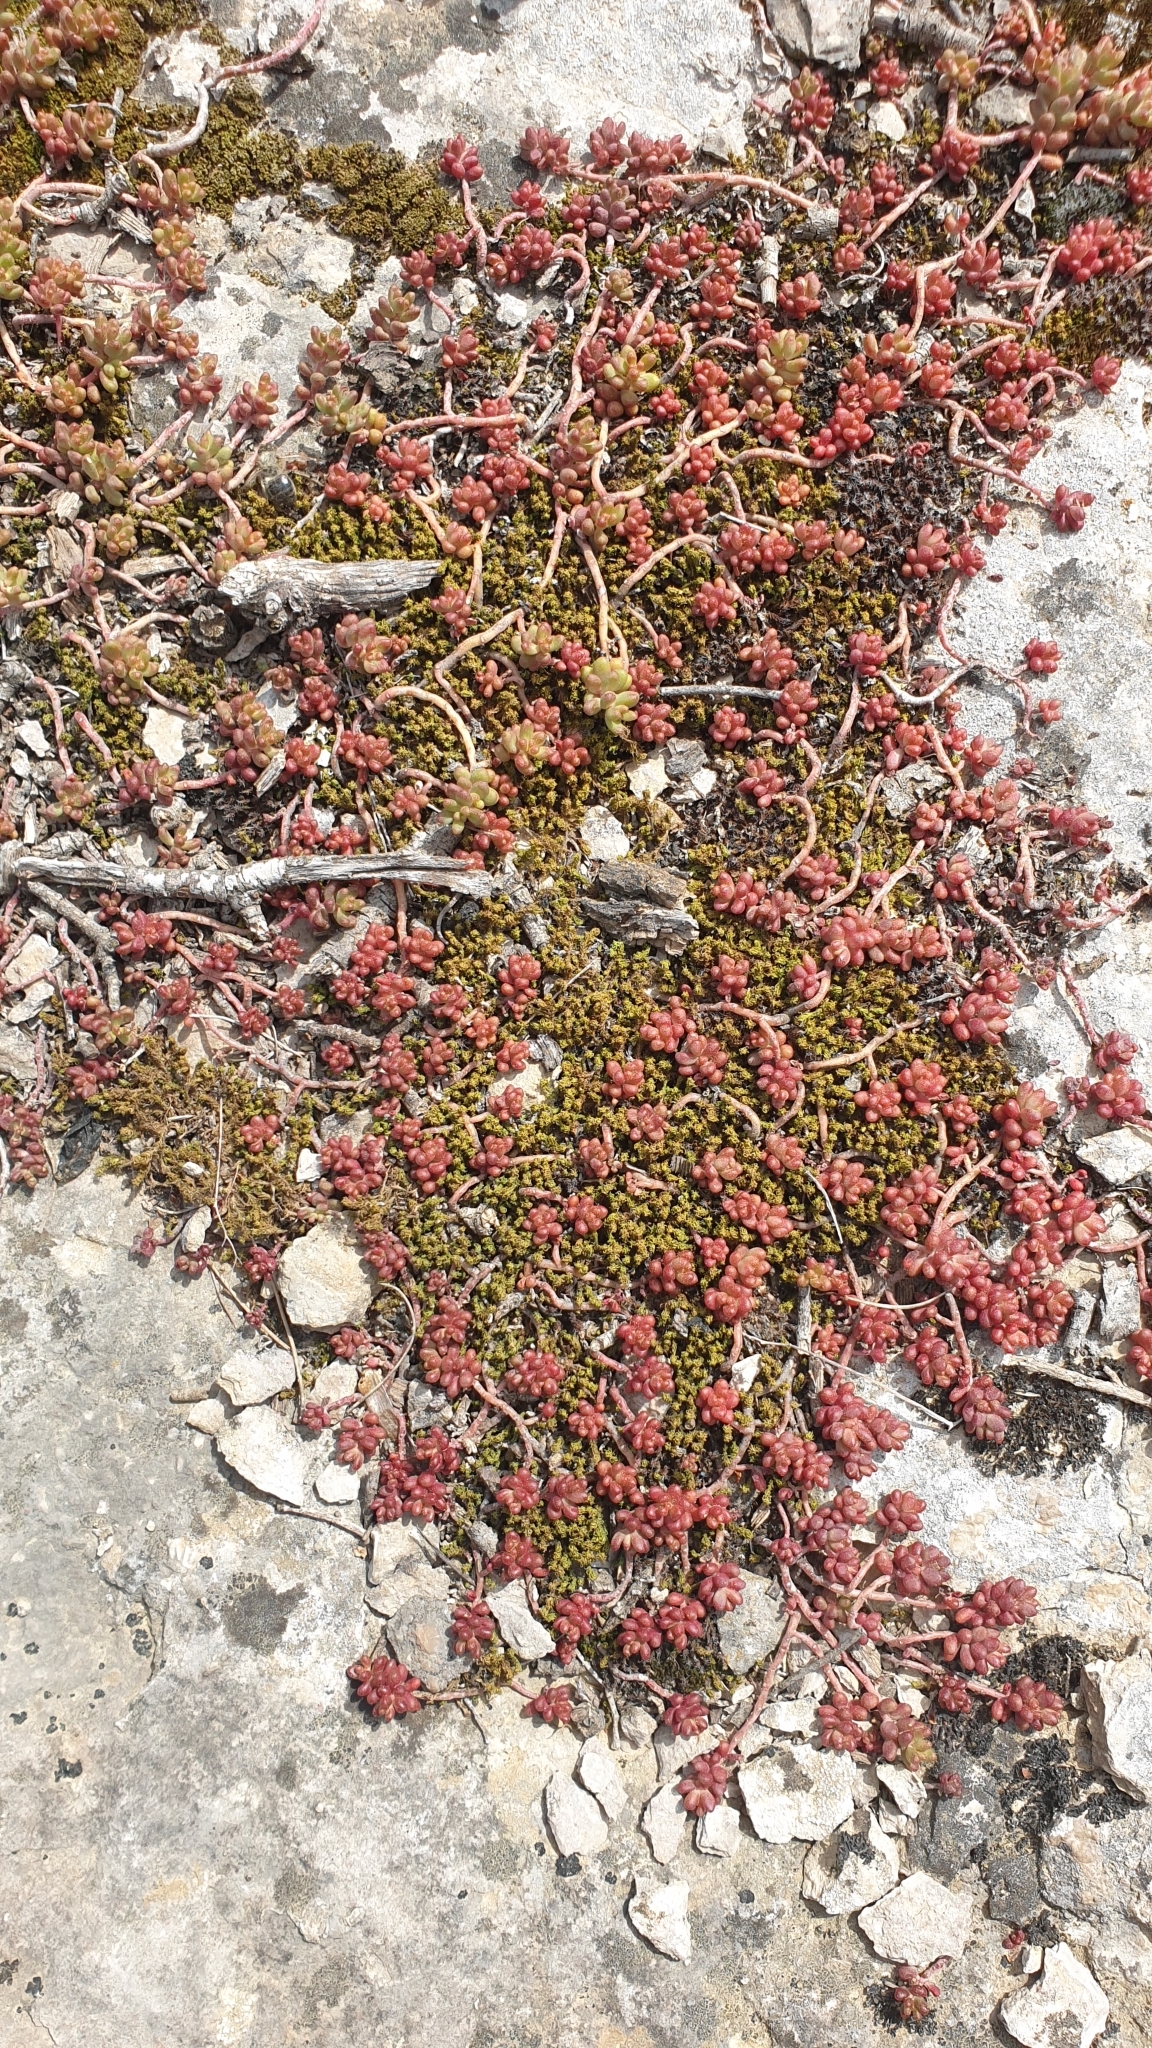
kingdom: Plantae
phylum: Tracheophyta
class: Magnoliopsida
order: Saxifragales
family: Crassulaceae
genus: Sedum
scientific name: Sedum album
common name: White stonecrop
